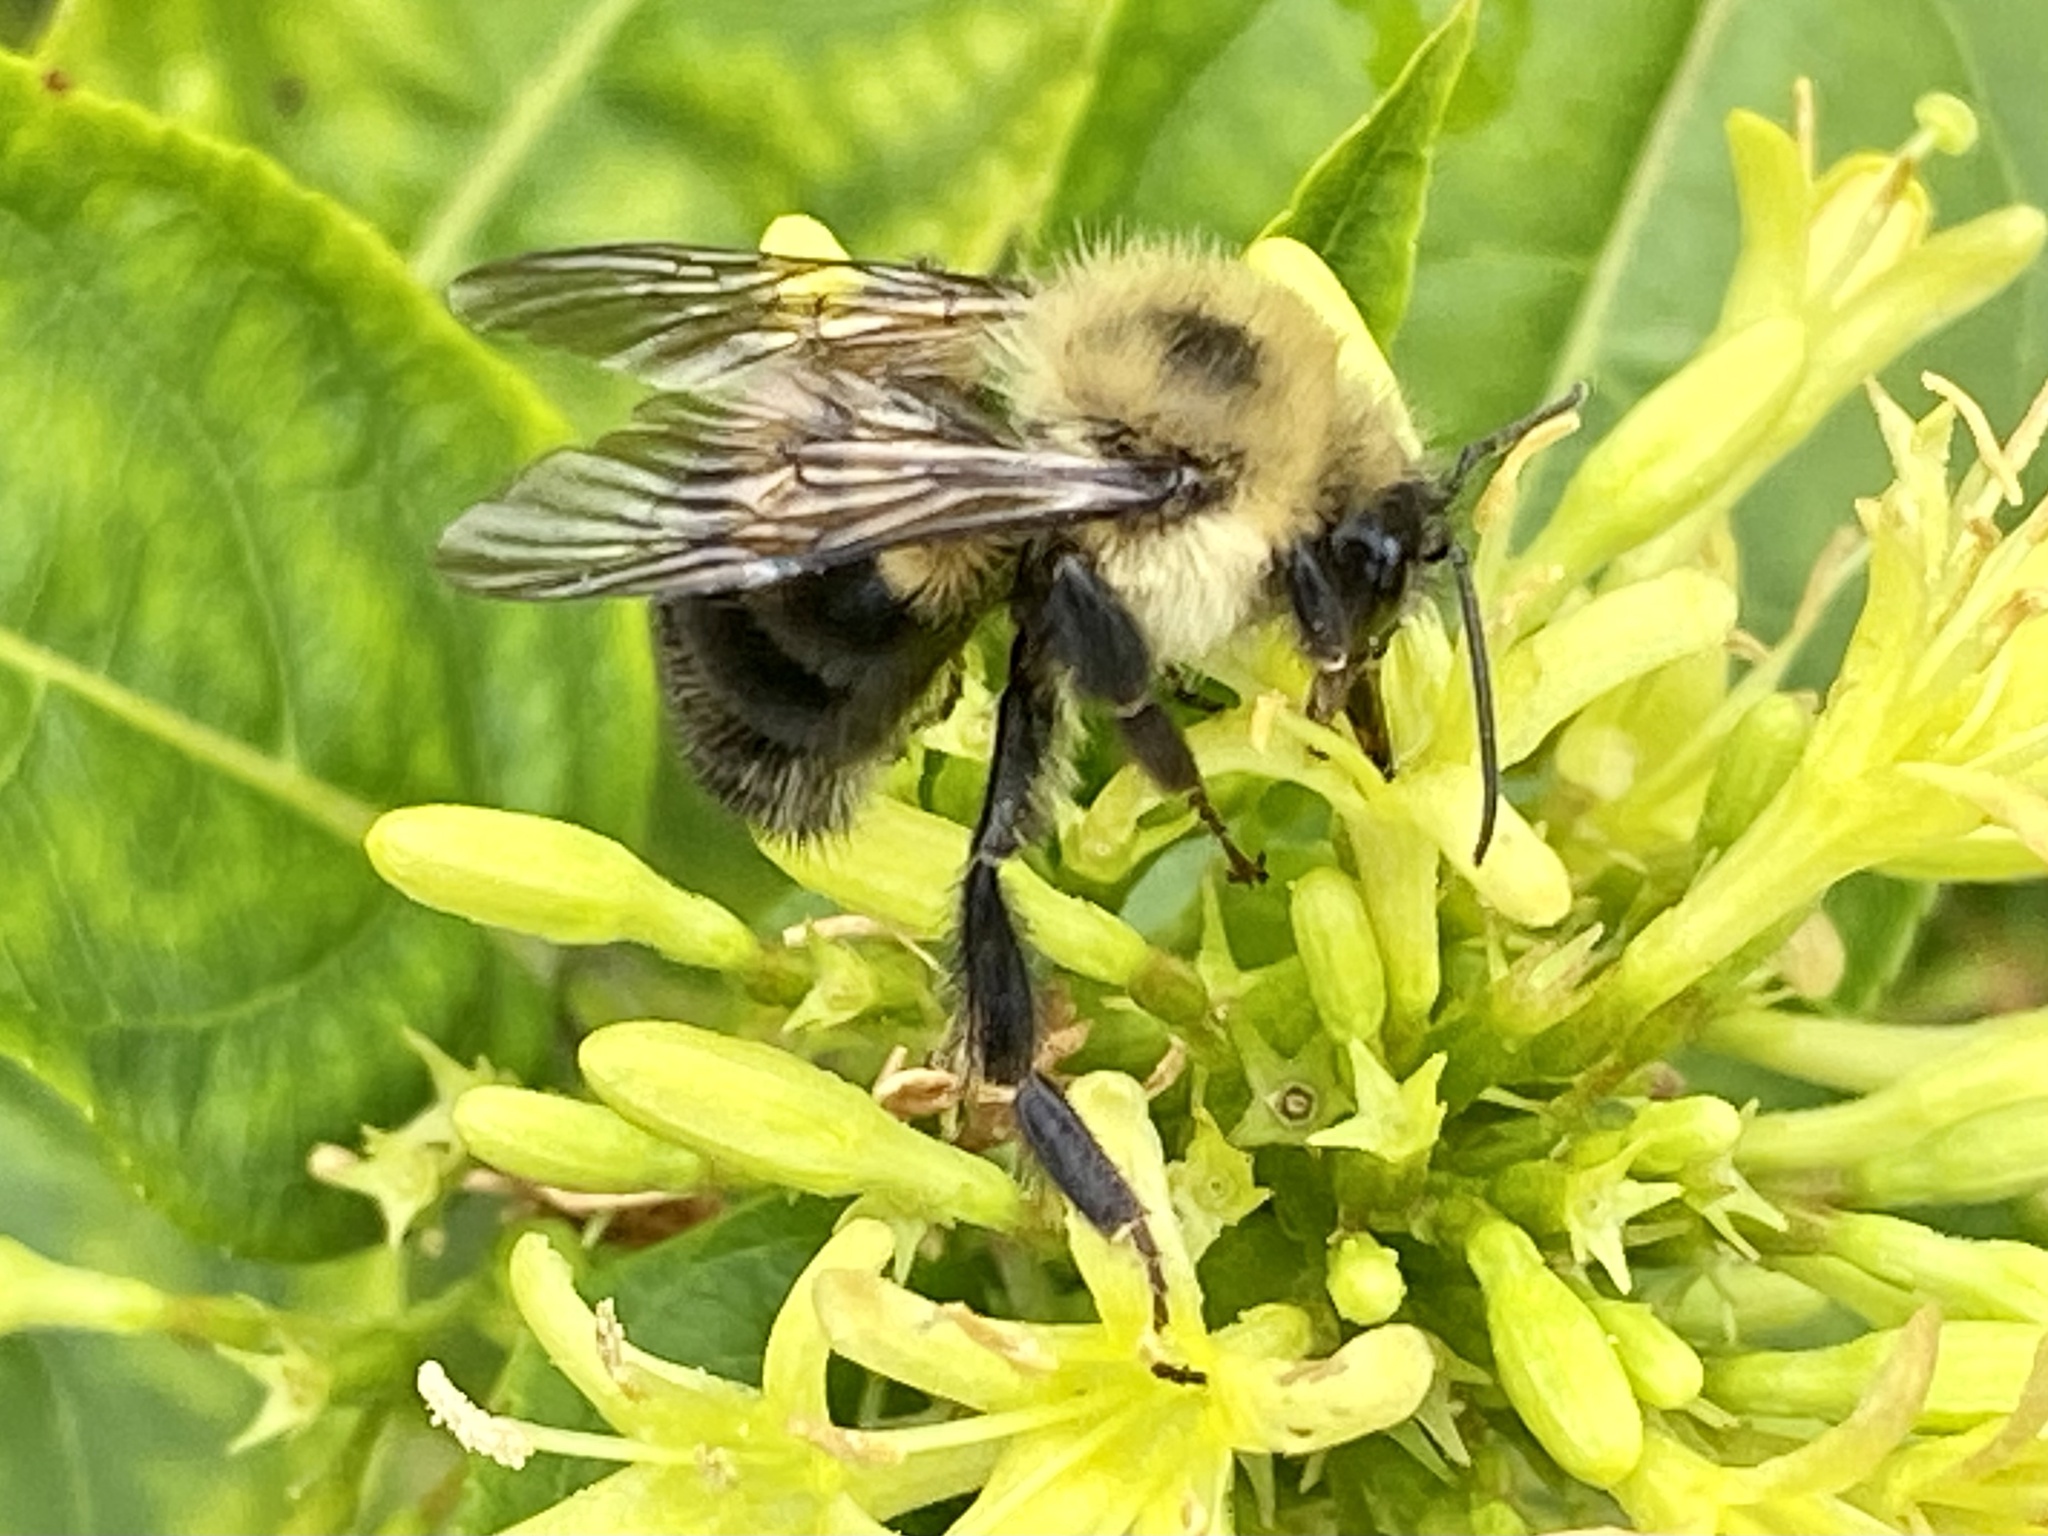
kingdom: Animalia
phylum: Arthropoda
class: Insecta
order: Hymenoptera
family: Apidae
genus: Bombus
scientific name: Bombus bimaculatus
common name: Two-spotted bumble bee
